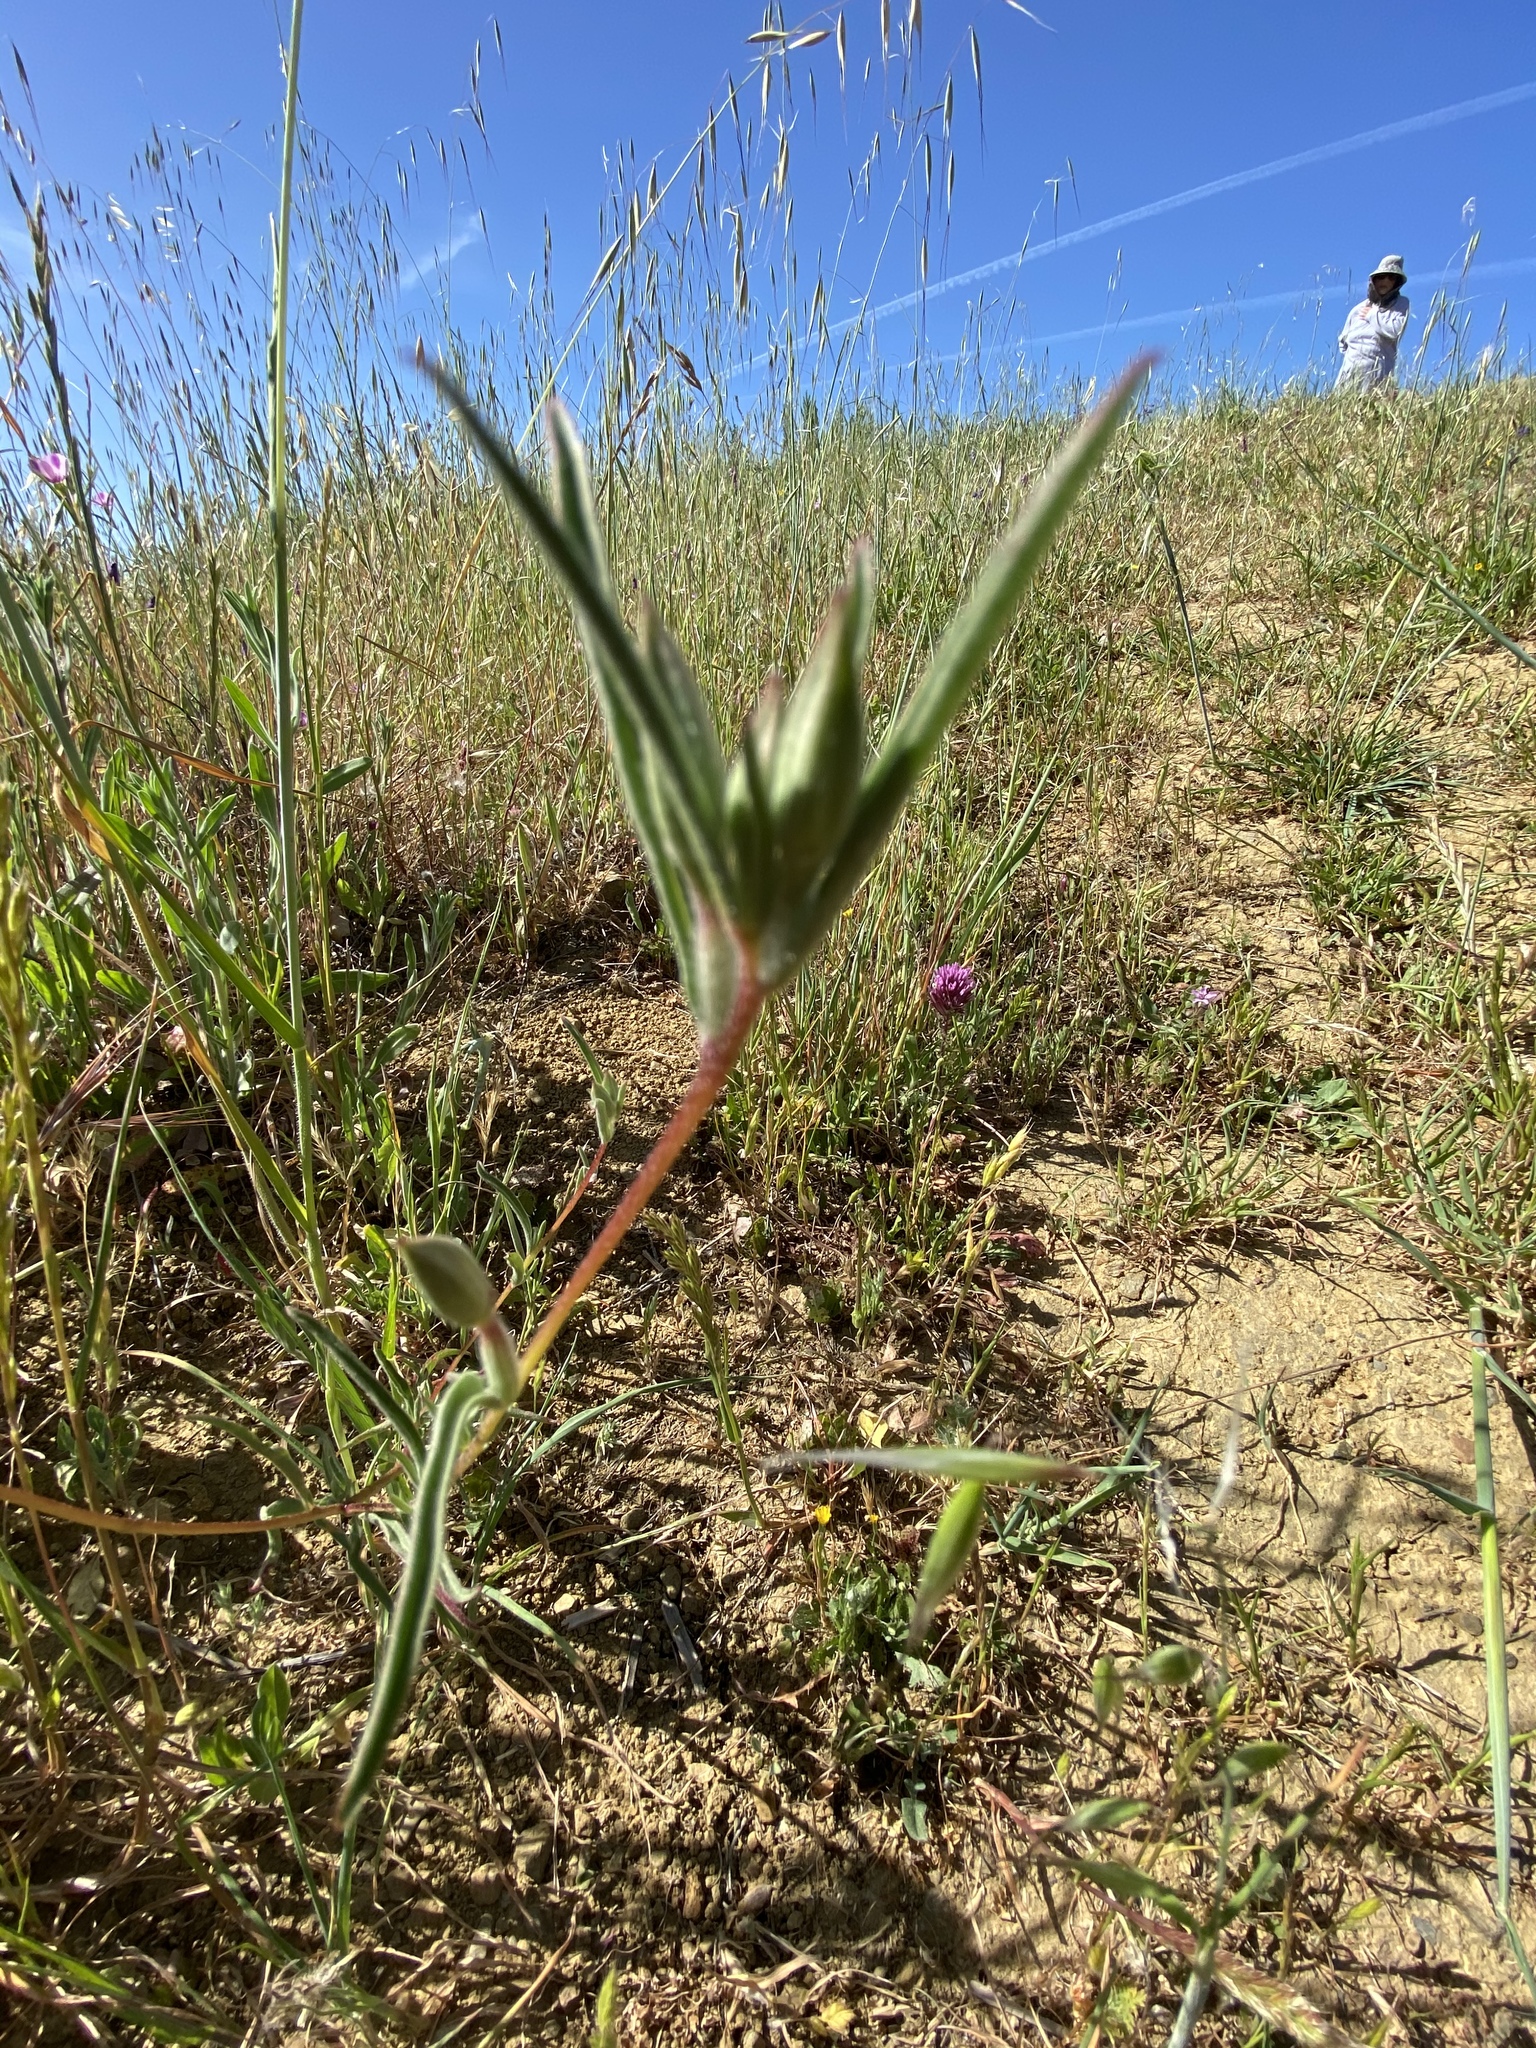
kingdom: Plantae
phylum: Tracheophyta
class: Magnoliopsida
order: Myrtales
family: Onagraceae
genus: Clarkia
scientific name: Clarkia purpurea
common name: Purple clarkia
